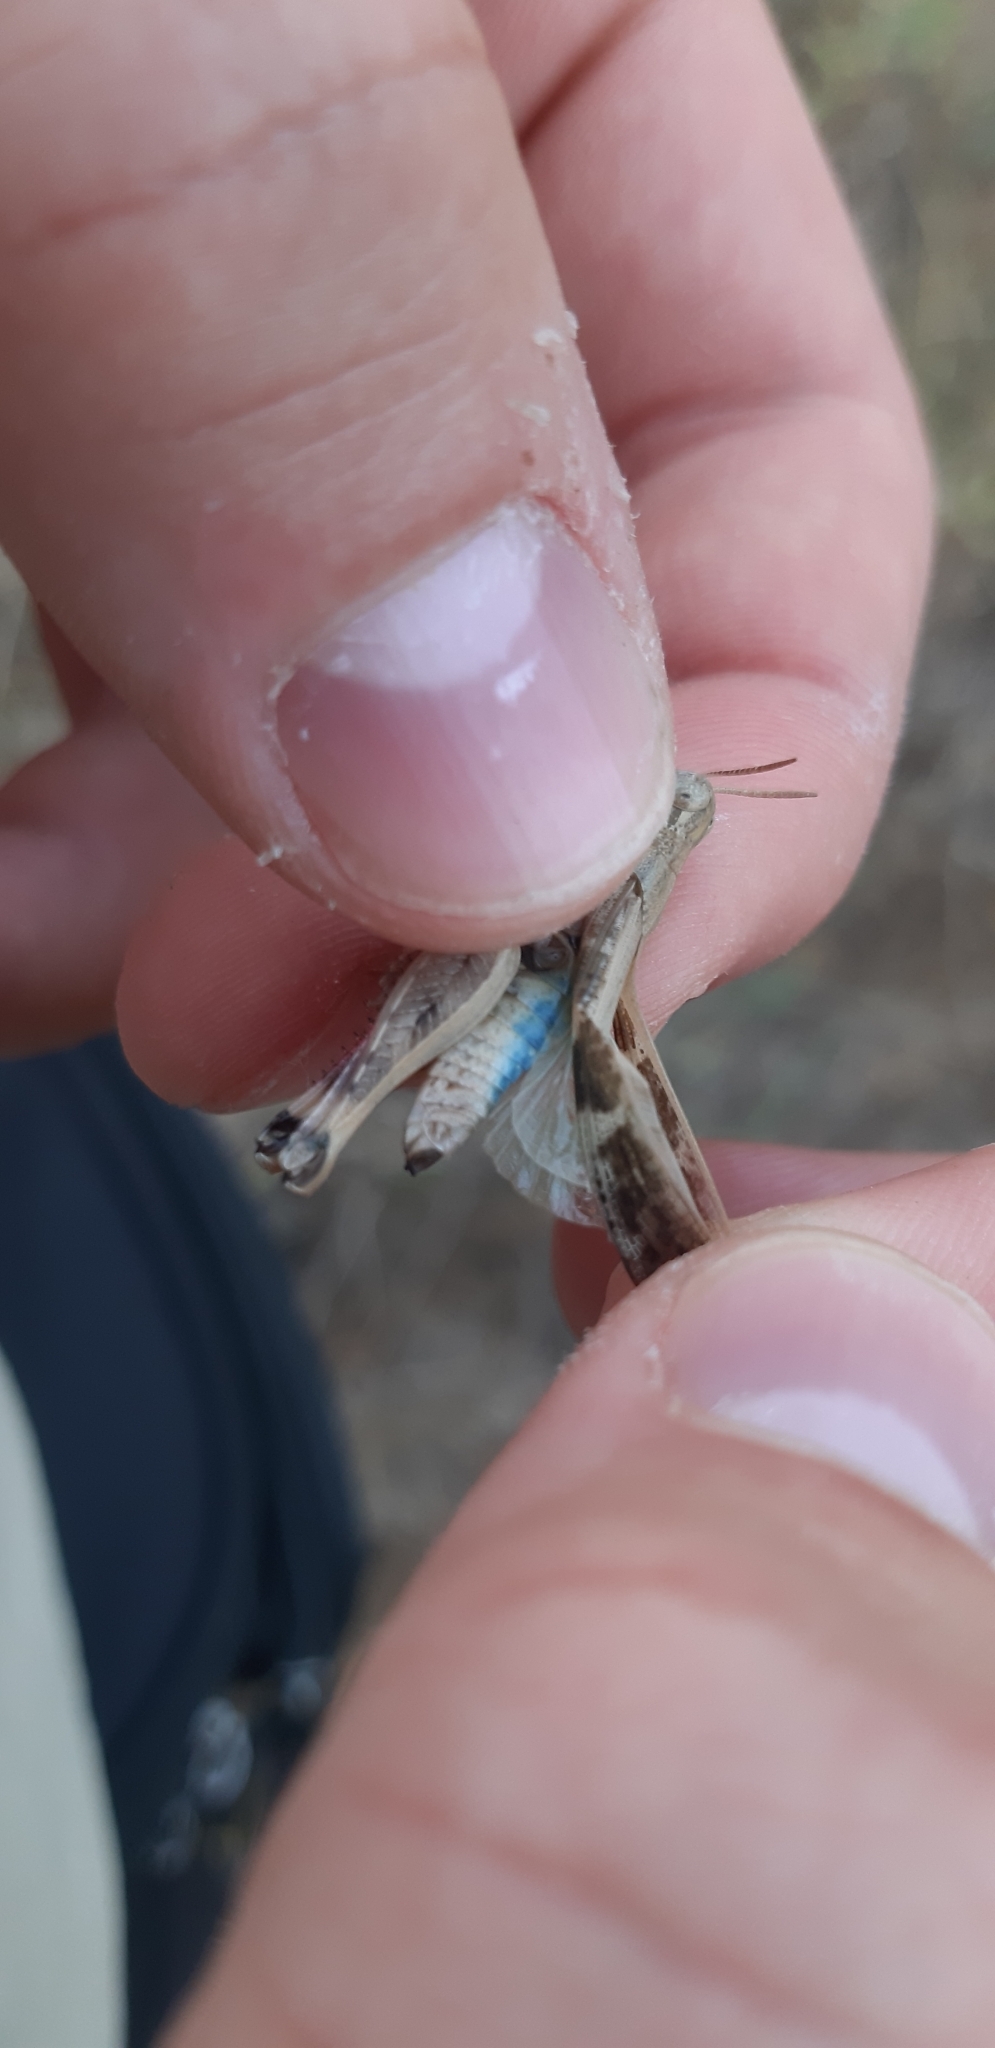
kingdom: Animalia
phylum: Arthropoda
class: Insecta
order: Orthoptera
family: Acrididae
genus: Aiolopus
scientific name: Aiolopus strepens
